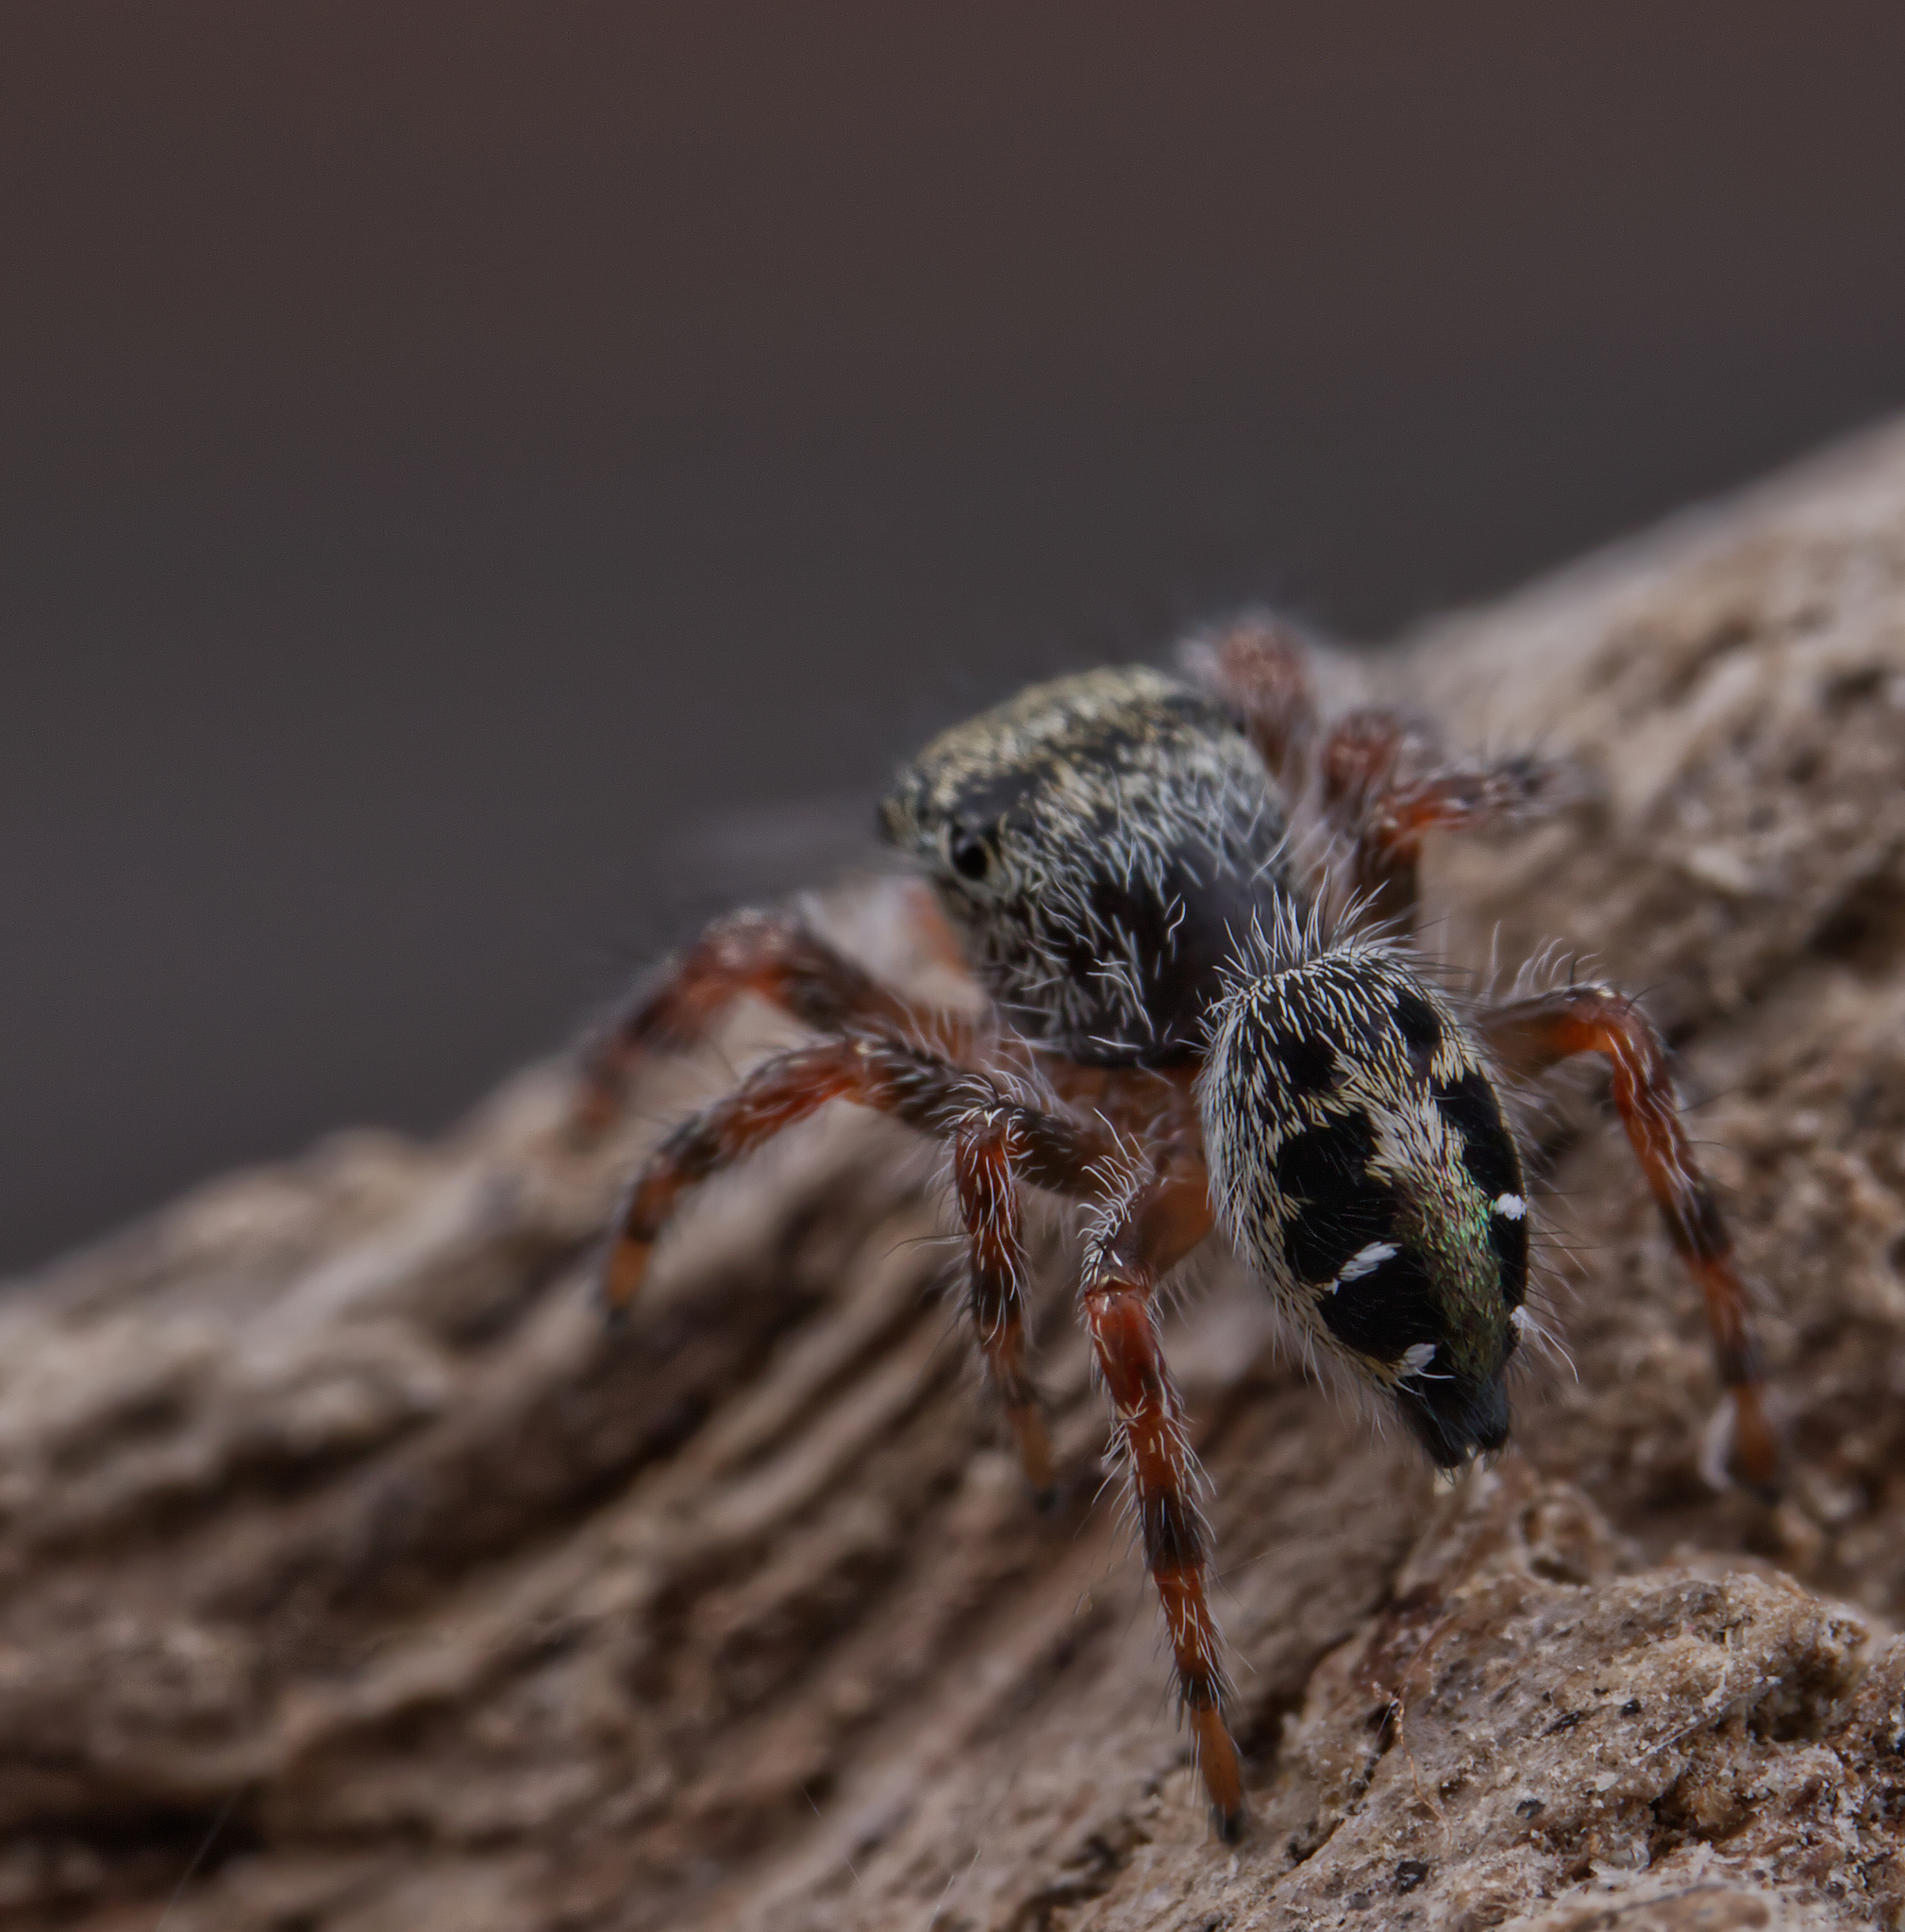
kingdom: Animalia
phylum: Arthropoda
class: Arachnida
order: Araneae
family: Salticidae
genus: Phidippus
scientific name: Phidippus insignarius
